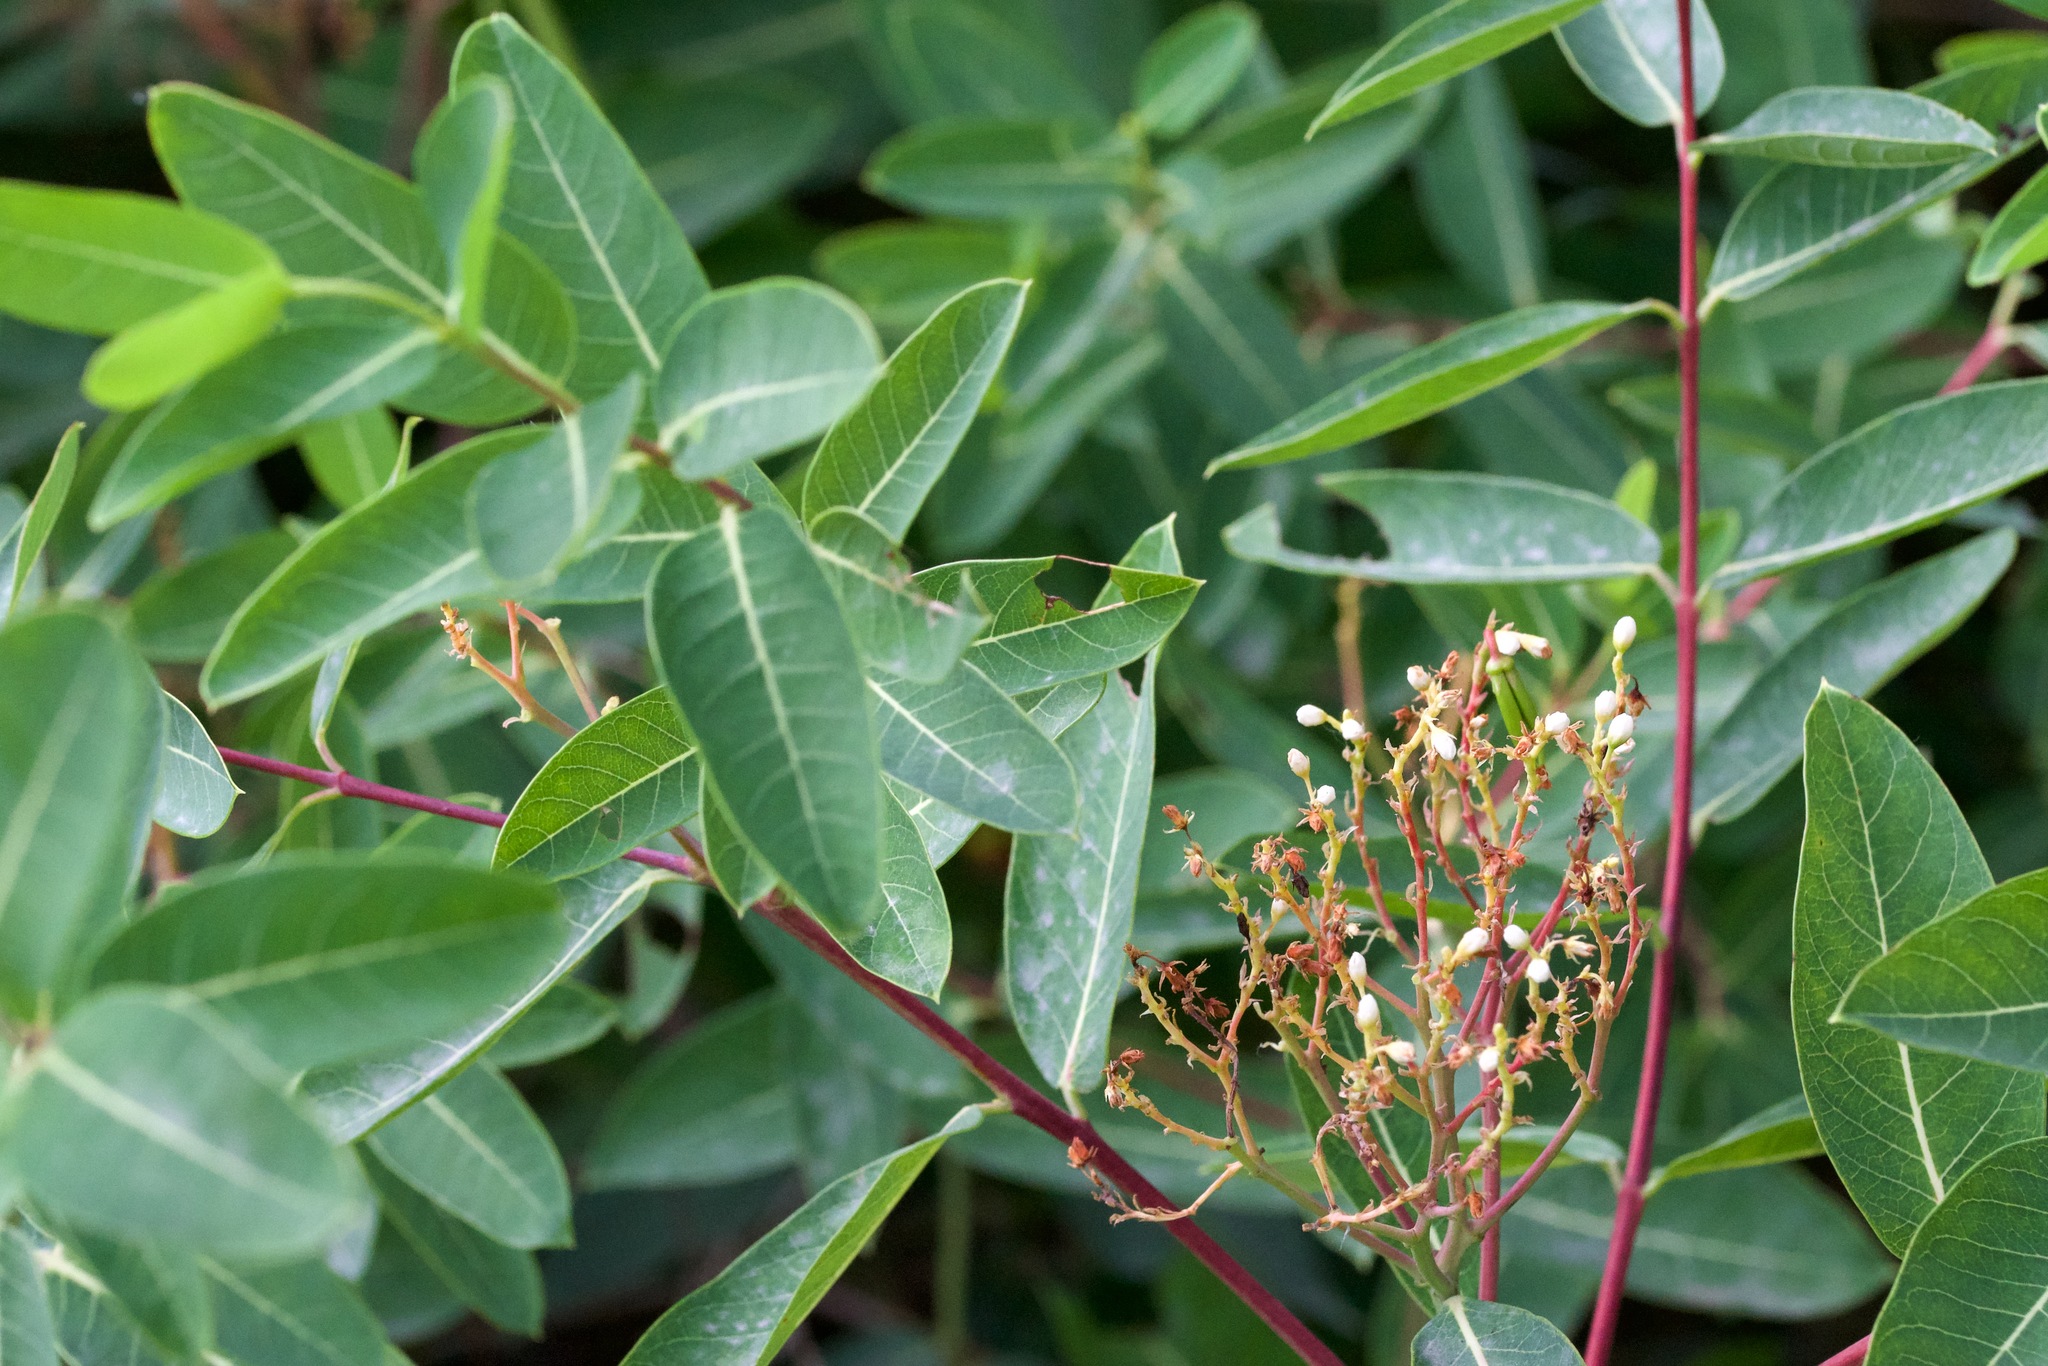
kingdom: Plantae
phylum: Tracheophyta
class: Magnoliopsida
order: Gentianales
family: Apocynaceae
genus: Apocynum
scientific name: Apocynum cannabinum
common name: Hemp dogbane
